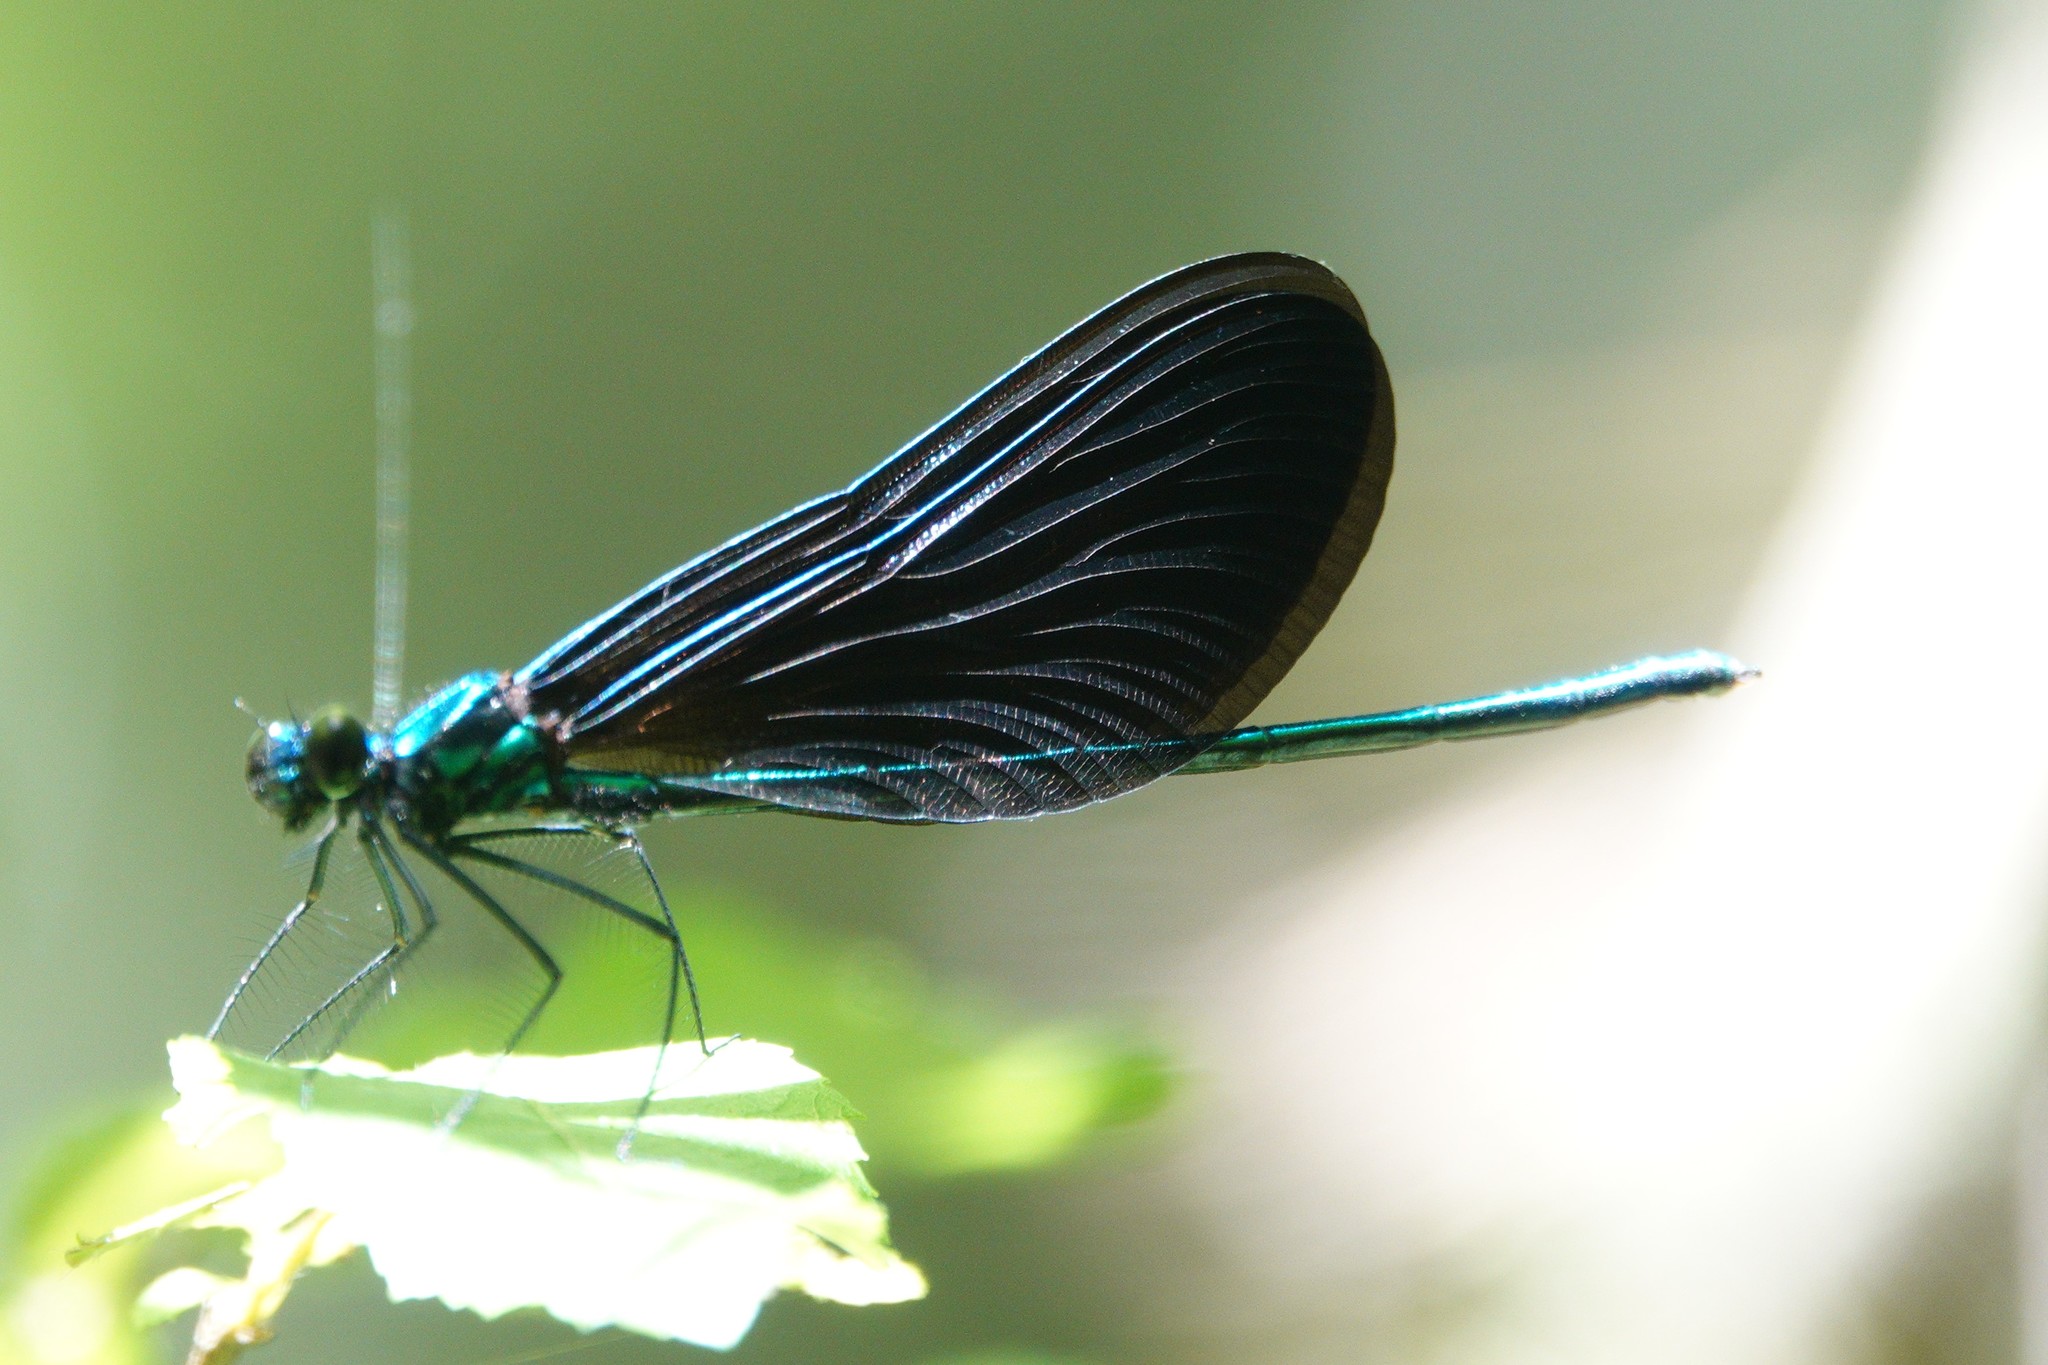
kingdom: Animalia
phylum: Arthropoda
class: Insecta
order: Odonata
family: Calopterygidae
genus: Calopteryx
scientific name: Calopteryx maculata
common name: Ebony jewelwing
